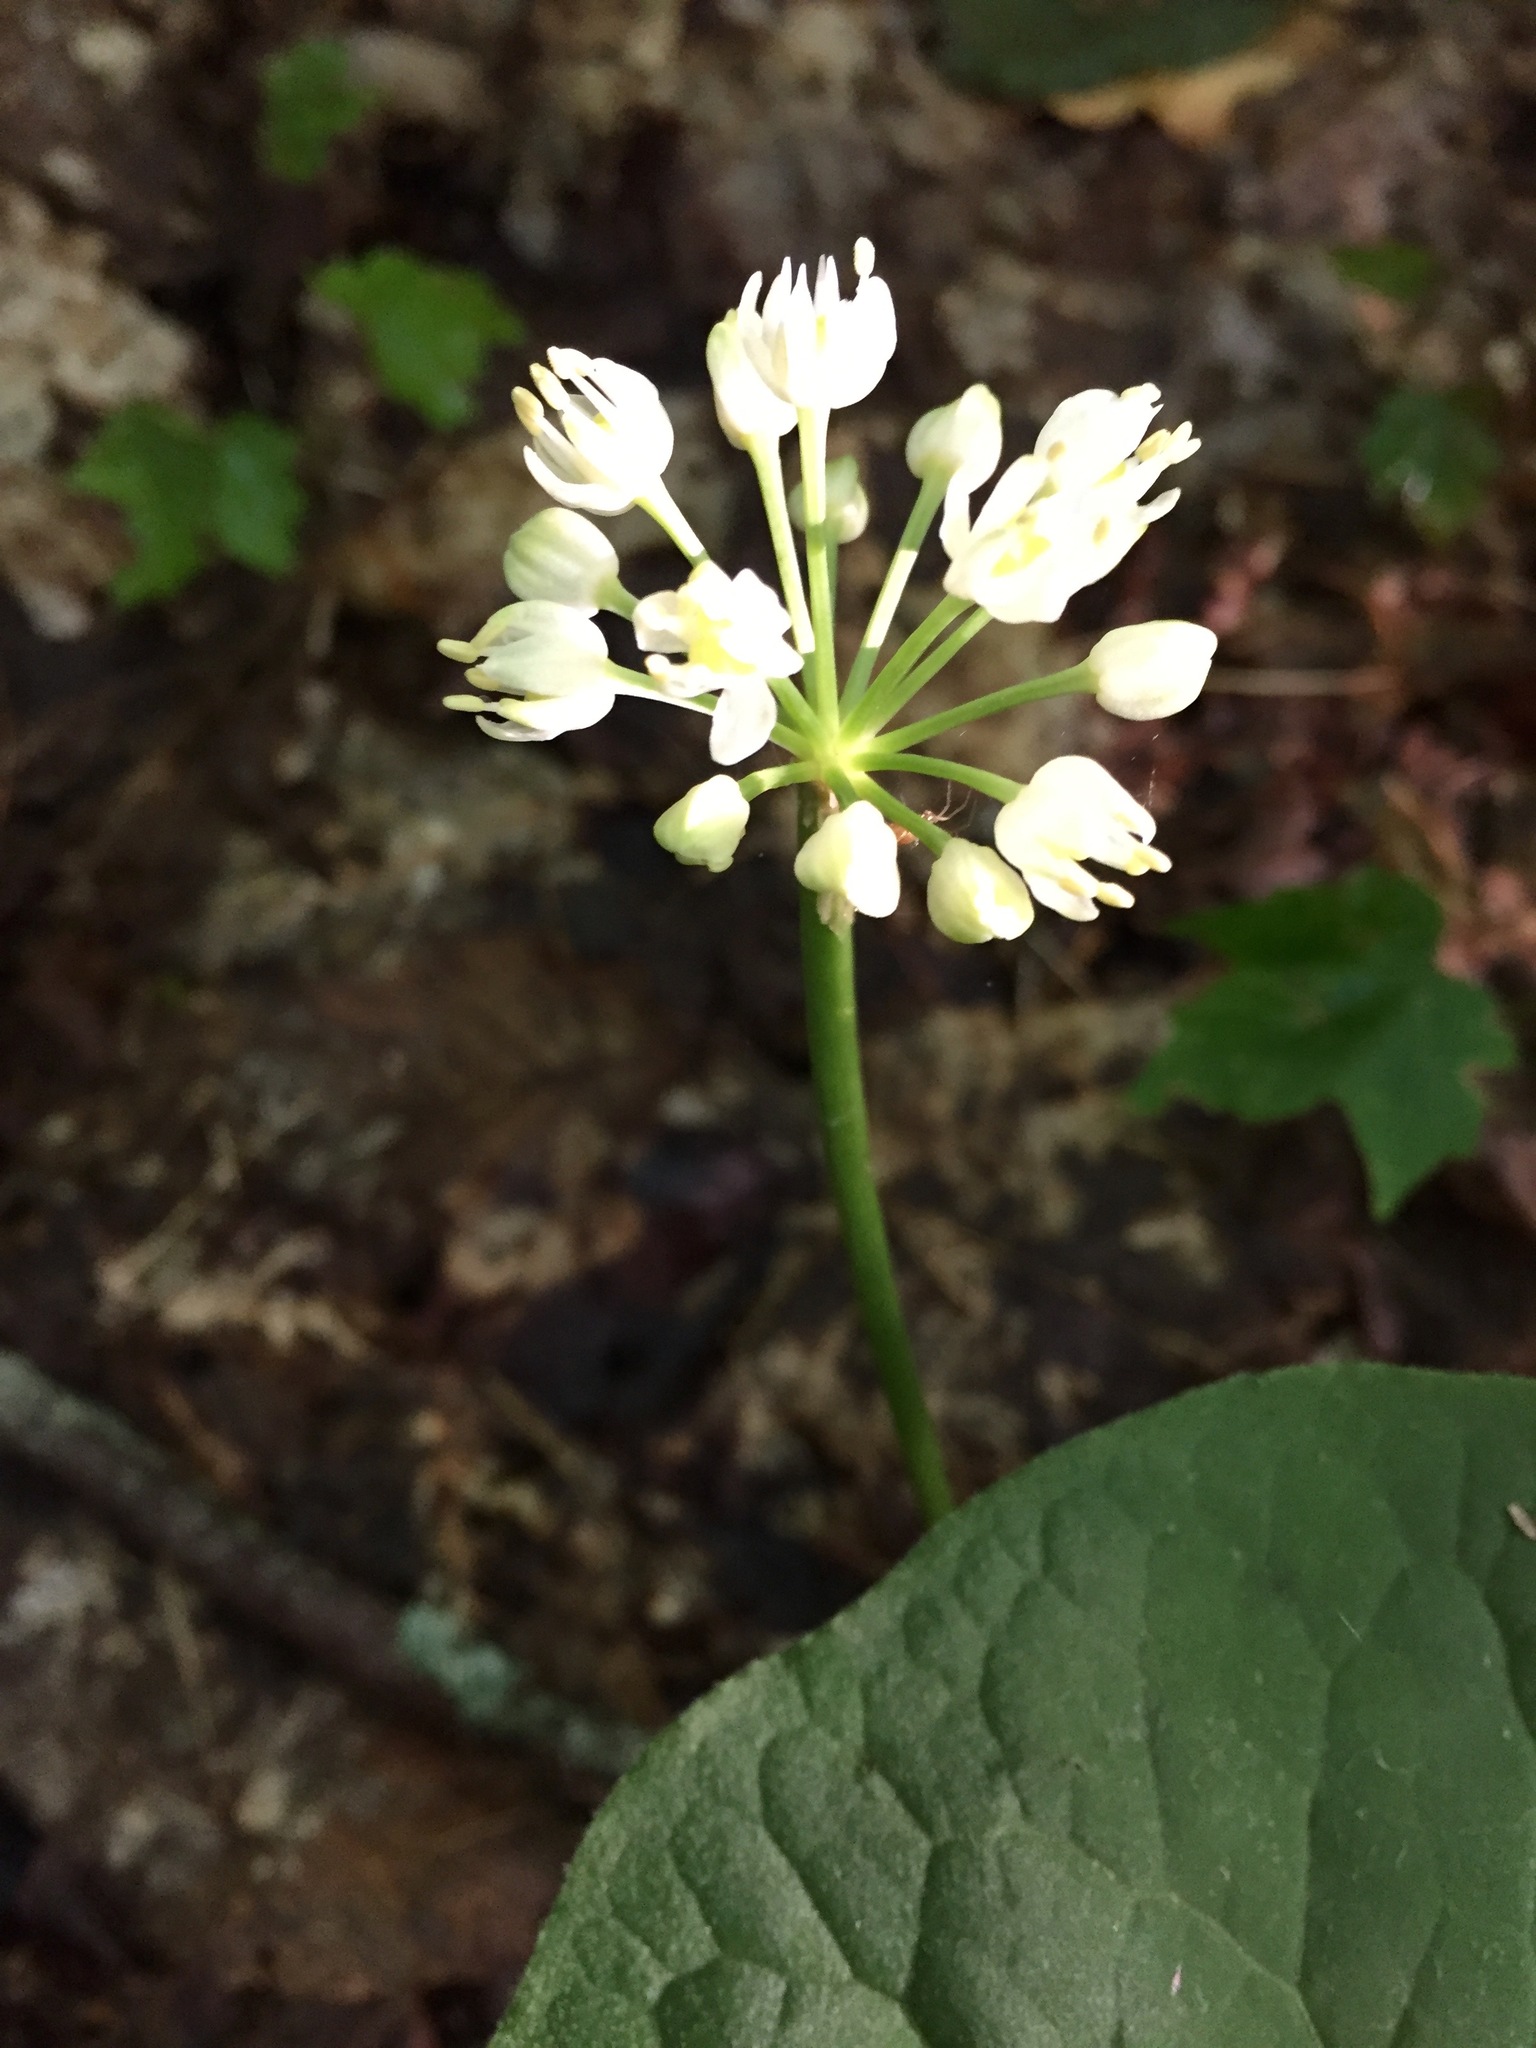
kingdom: Plantae
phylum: Tracheophyta
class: Liliopsida
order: Asparagales
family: Amaryllidaceae
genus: Allium
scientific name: Allium tricoccum
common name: Ramp
